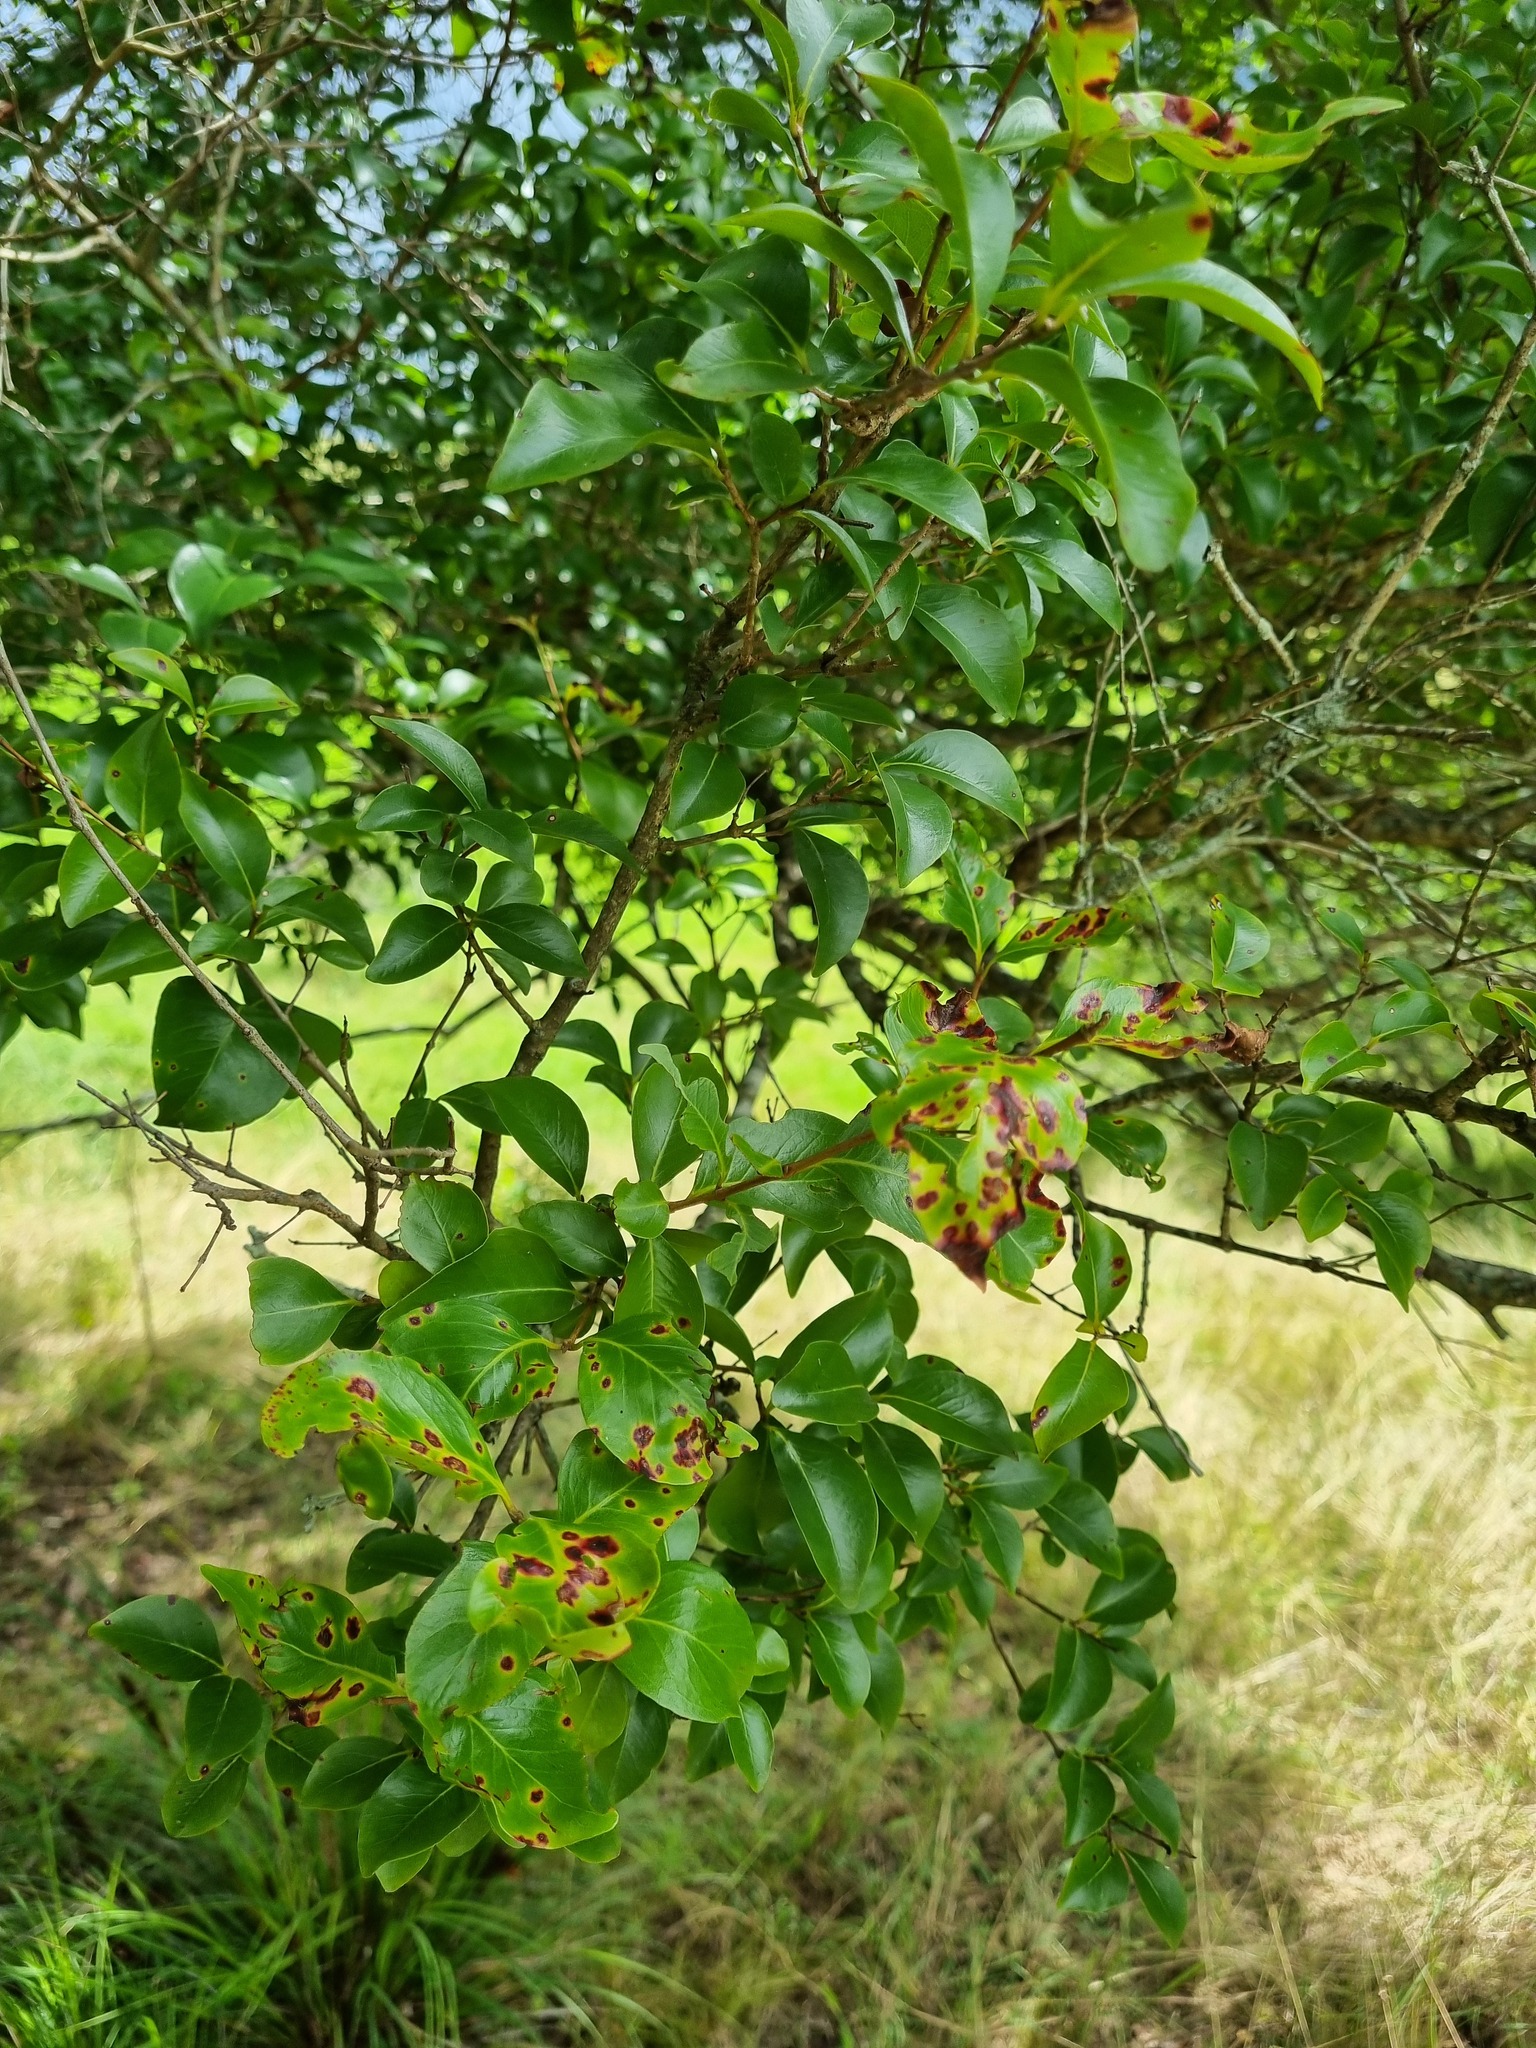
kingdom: Fungi
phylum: Basidiomycota
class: Pucciniomycetes
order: Pucciniales
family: Sphaerophragmiaceae
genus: Austropuccinia
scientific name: Austropuccinia psidii
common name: Myrtle rust
